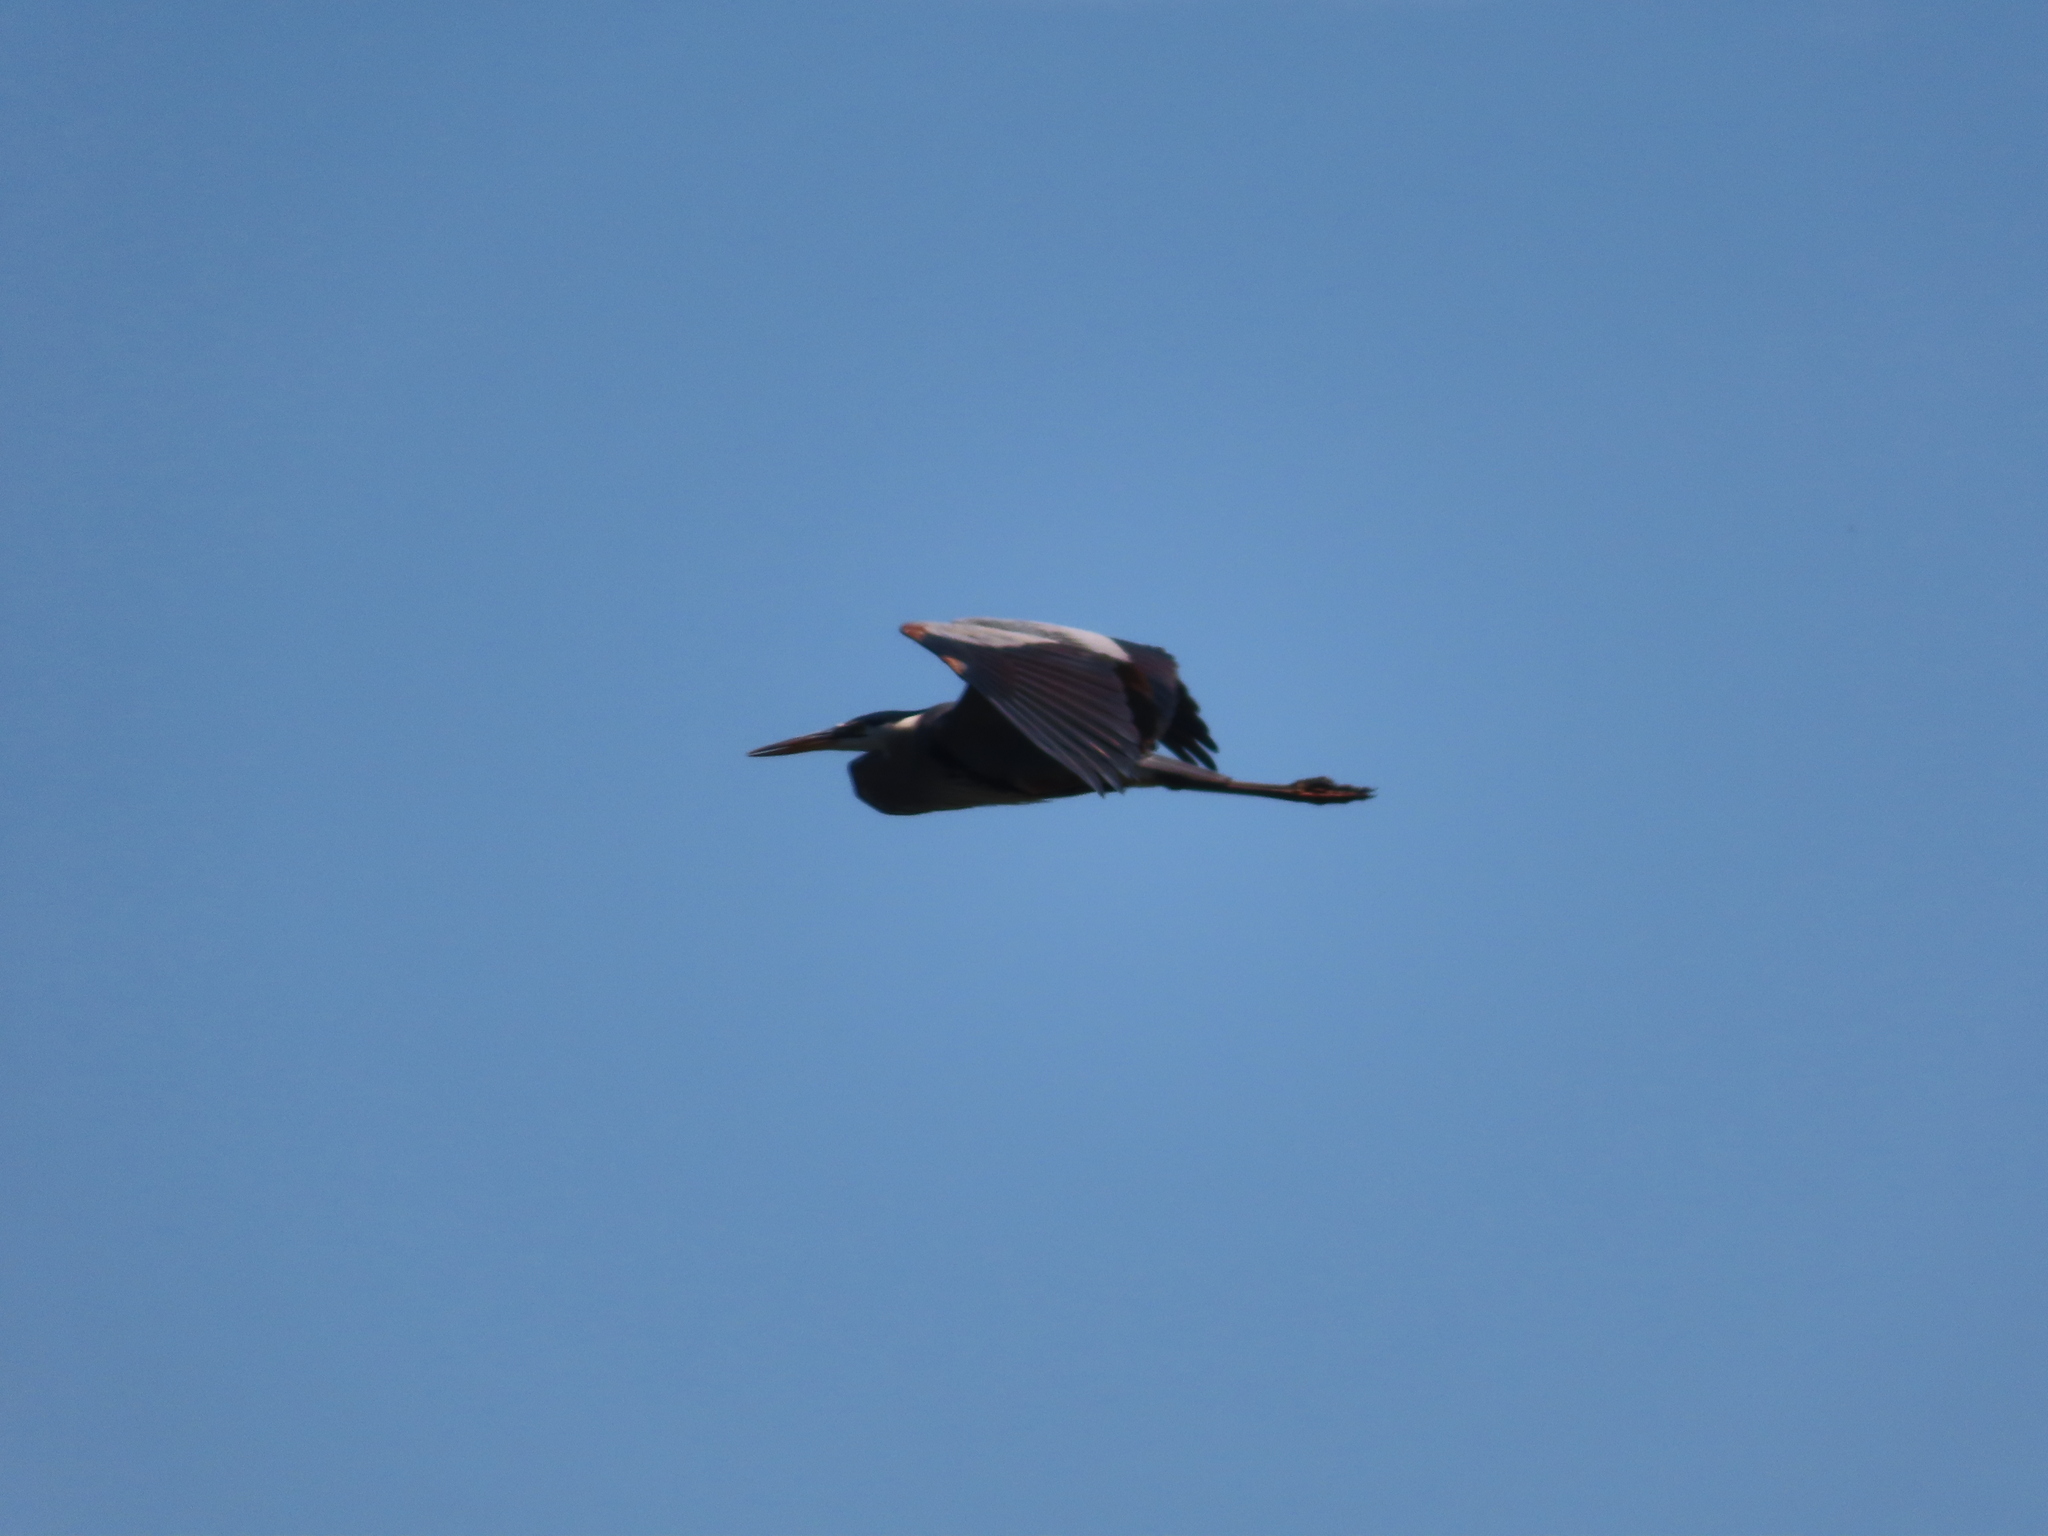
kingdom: Animalia
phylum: Chordata
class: Aves
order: Pelecaniformes
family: Ardeidae
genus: Ardea
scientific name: Ardea herodias
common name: Great blue heron
